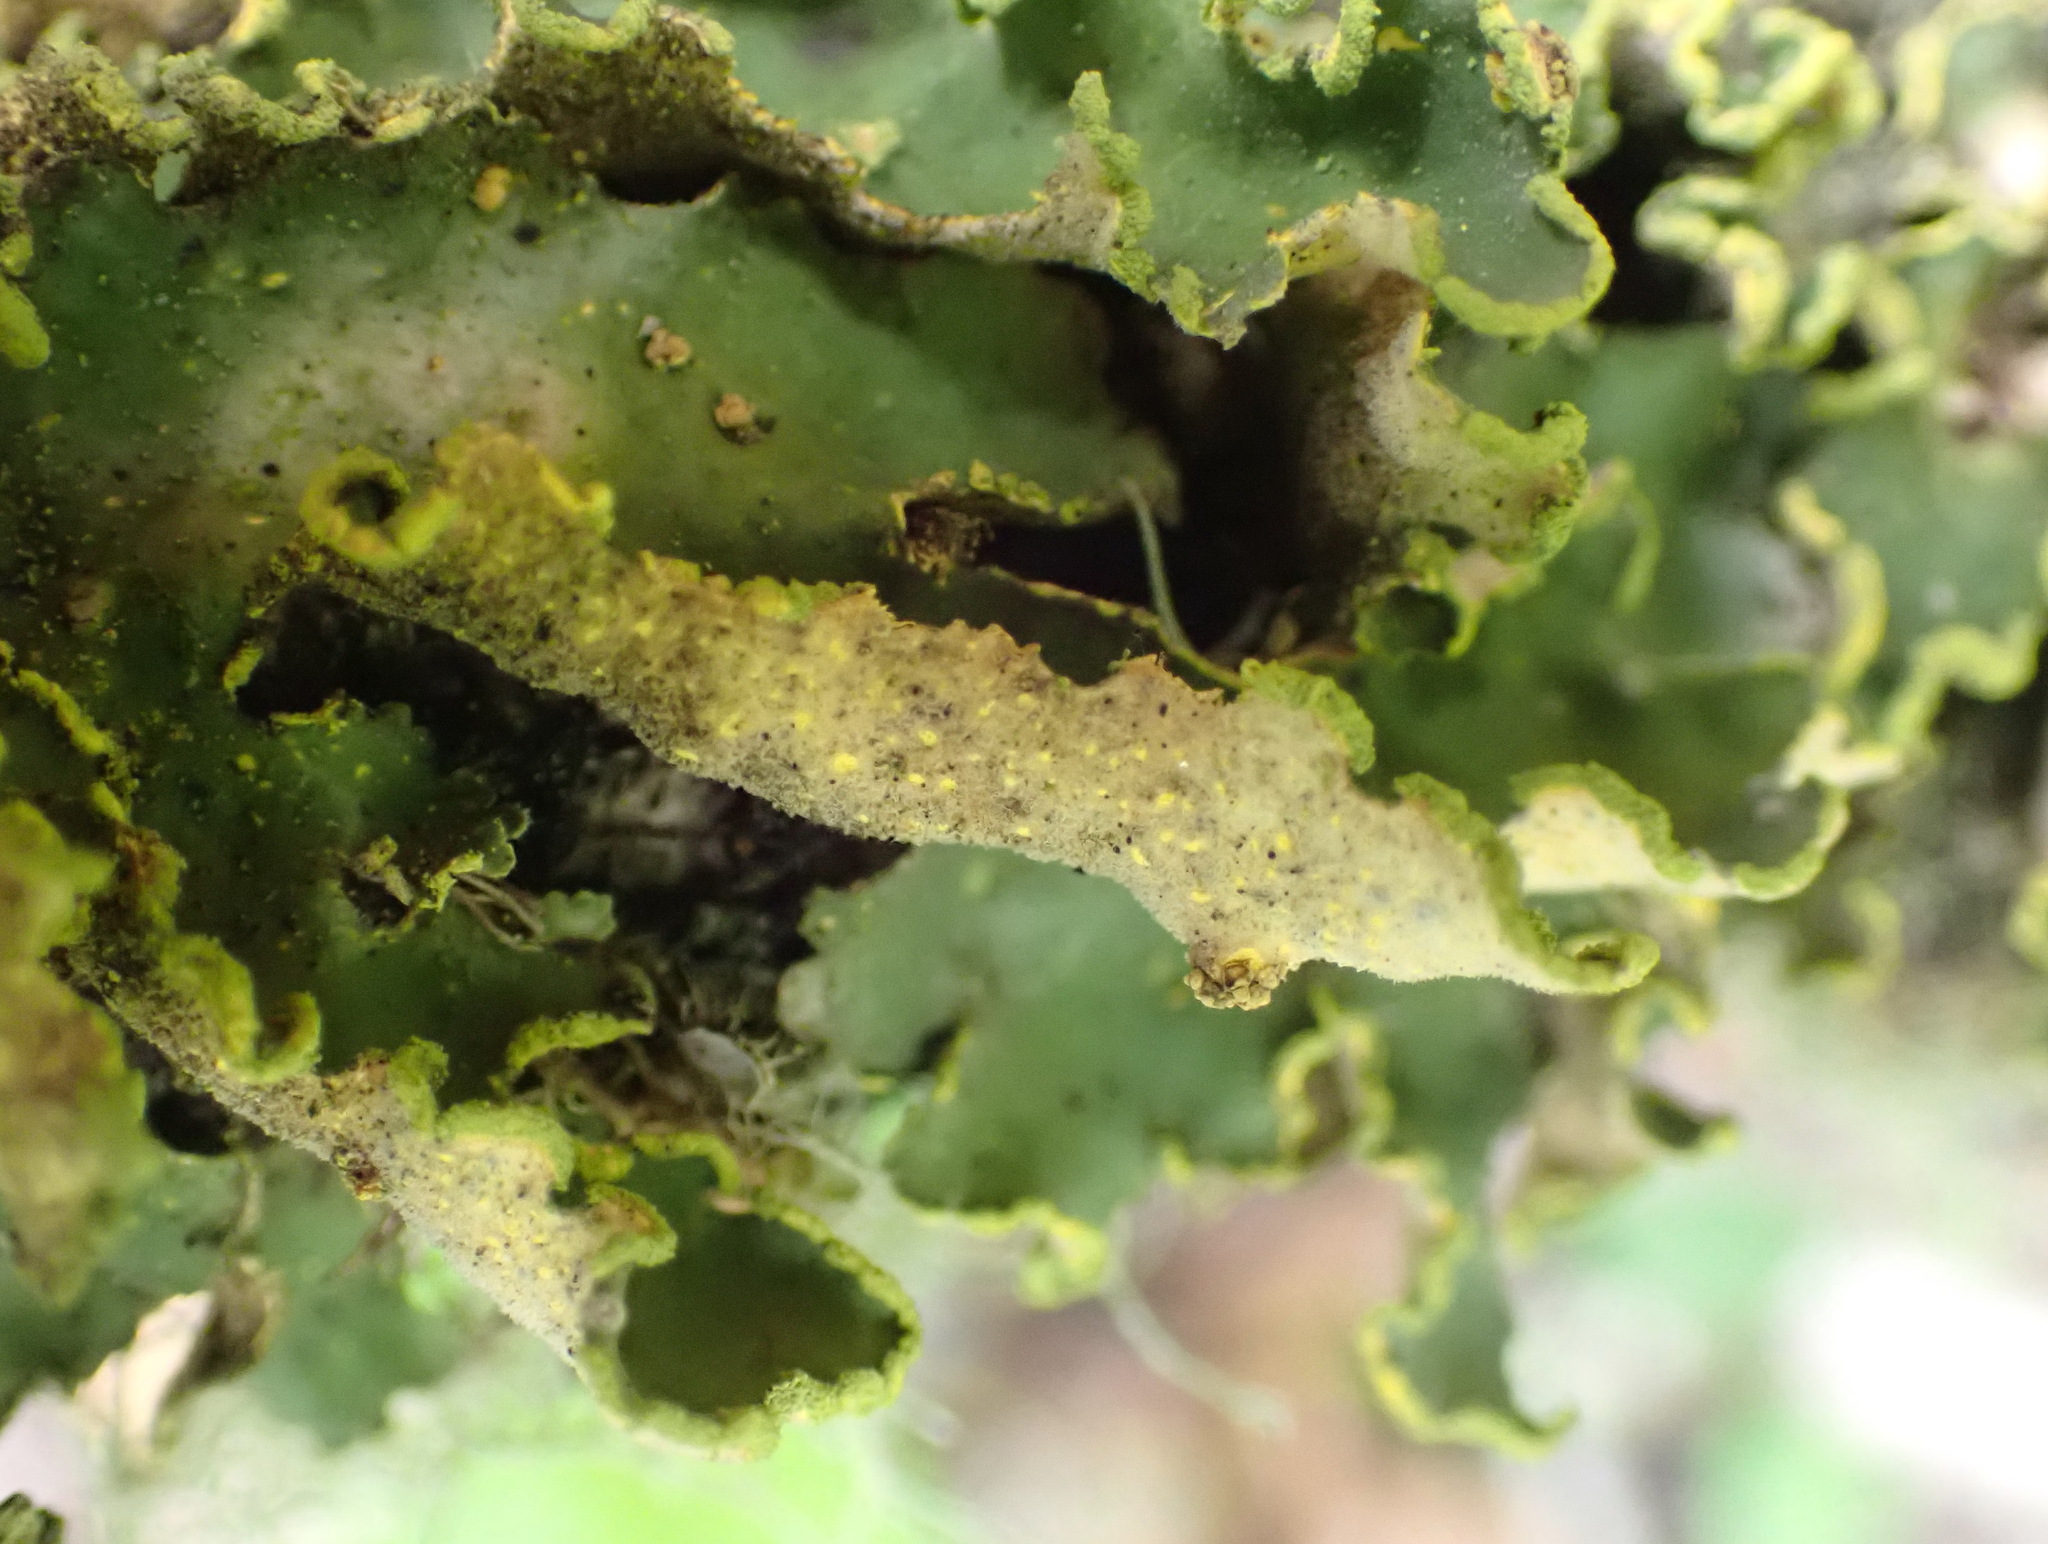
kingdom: Fungi
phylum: Ascomycota
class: Lecanoromycetes
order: Peltigerales
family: Lobariaceae
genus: Pseudocyphellaria
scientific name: Pseudocyphellaria aurata
